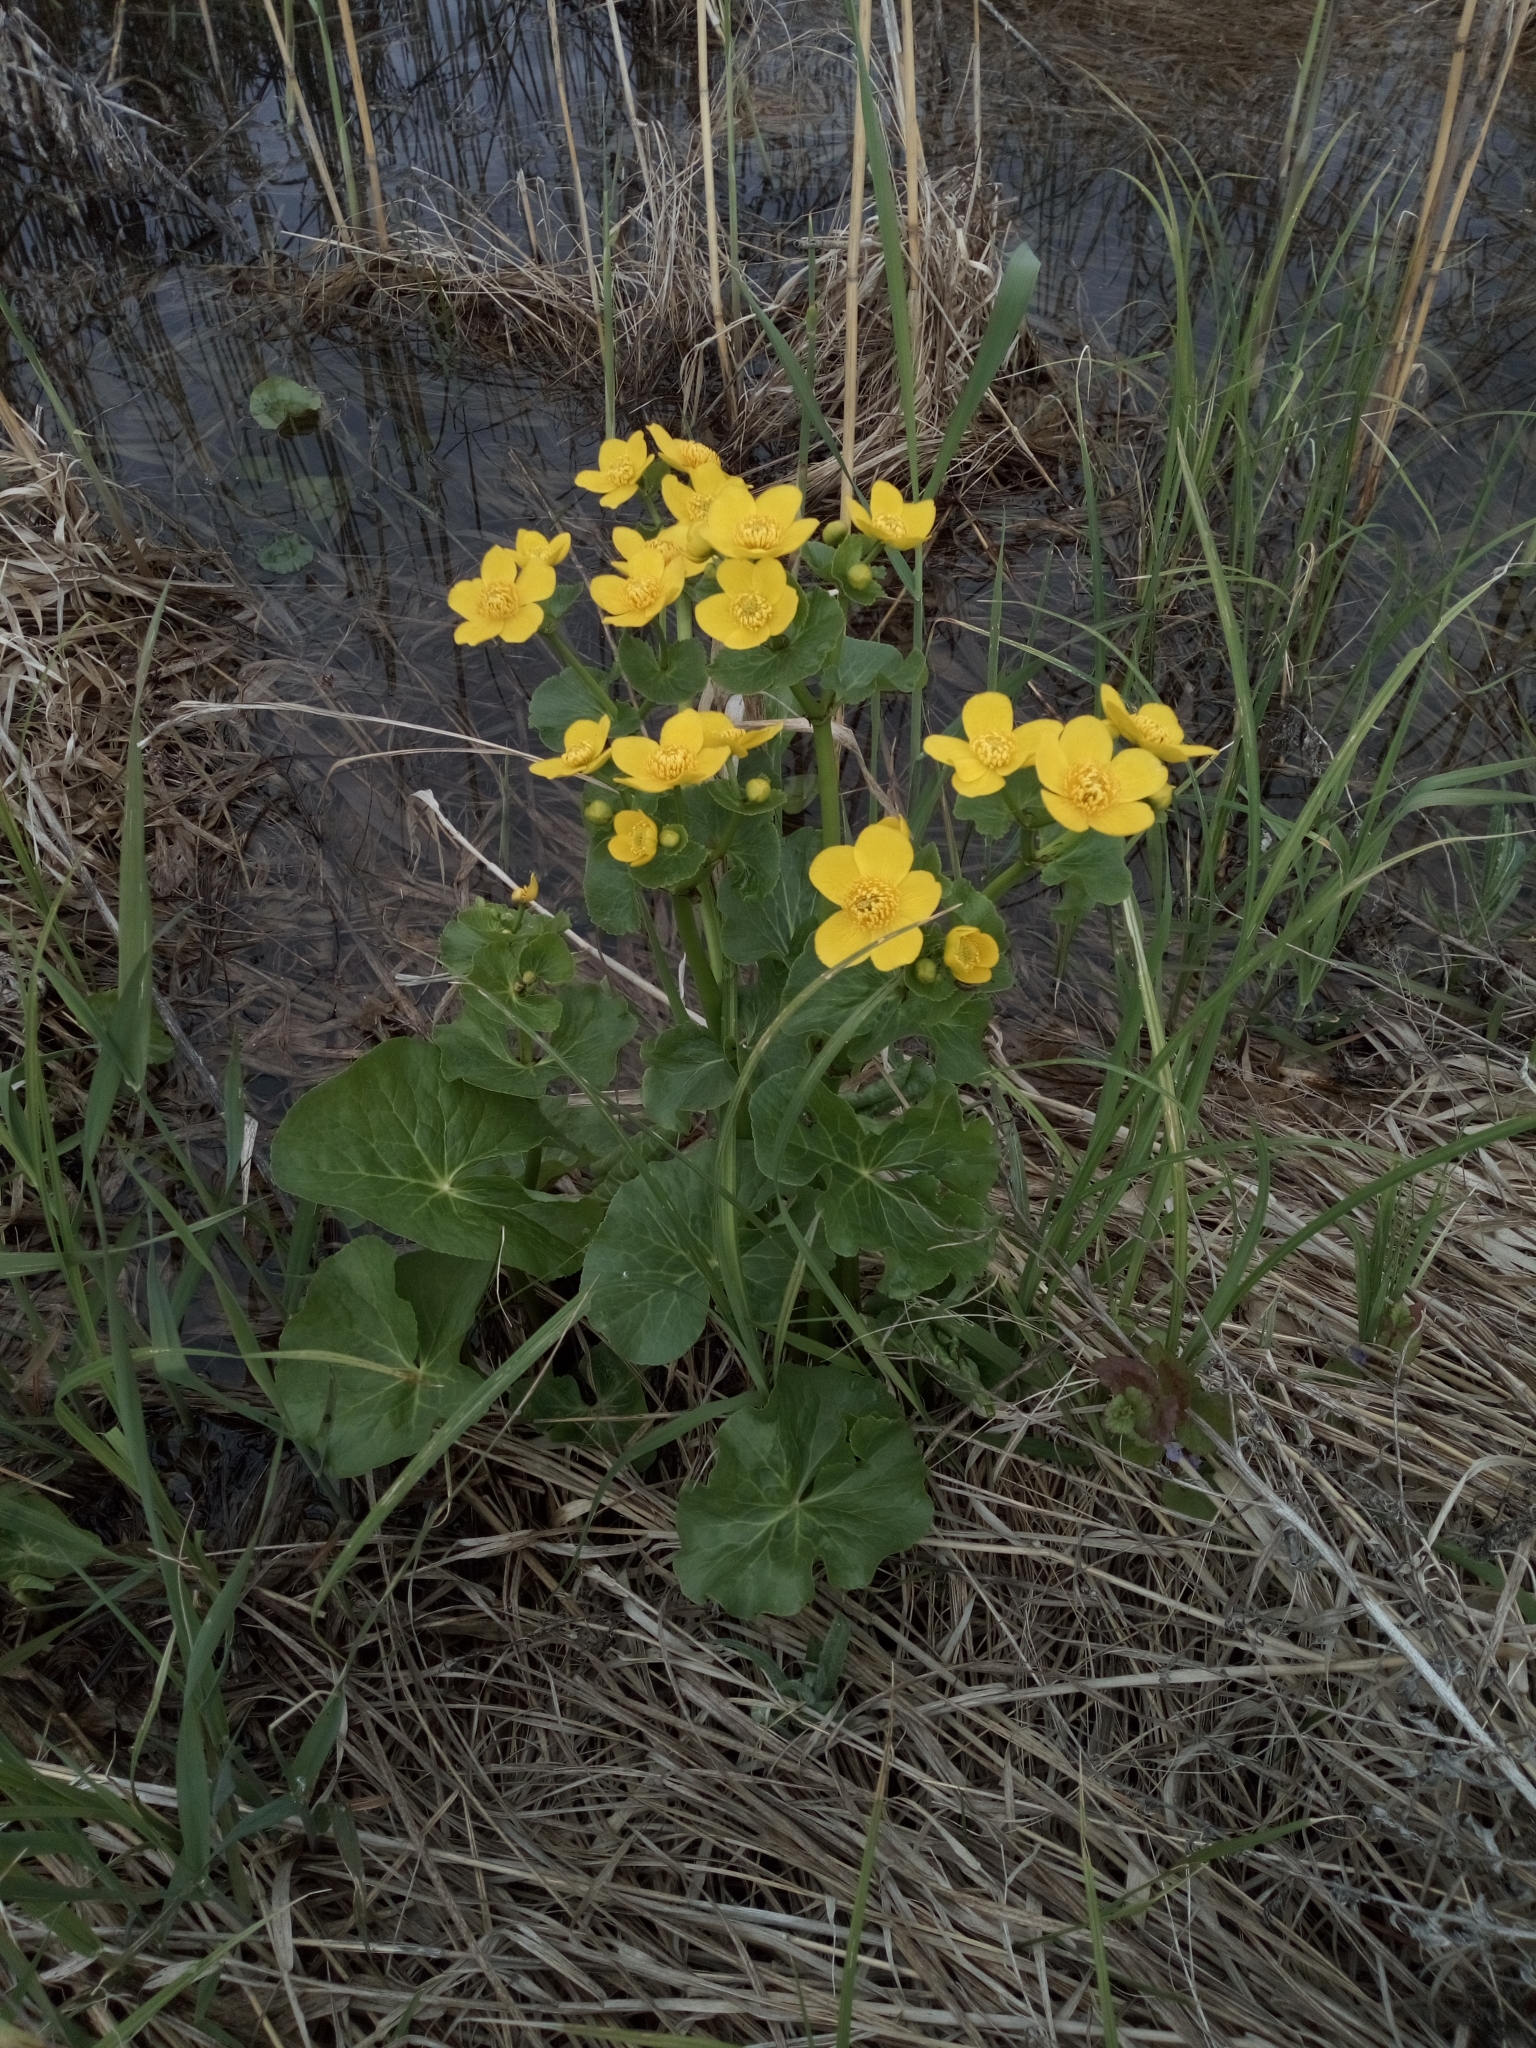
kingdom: Plantae
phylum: Tracheophyta
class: Magnoliopsida
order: Ranunculales
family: Ranunculaceae
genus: Caltha
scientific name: Caltha palustris
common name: Marsh marigold
